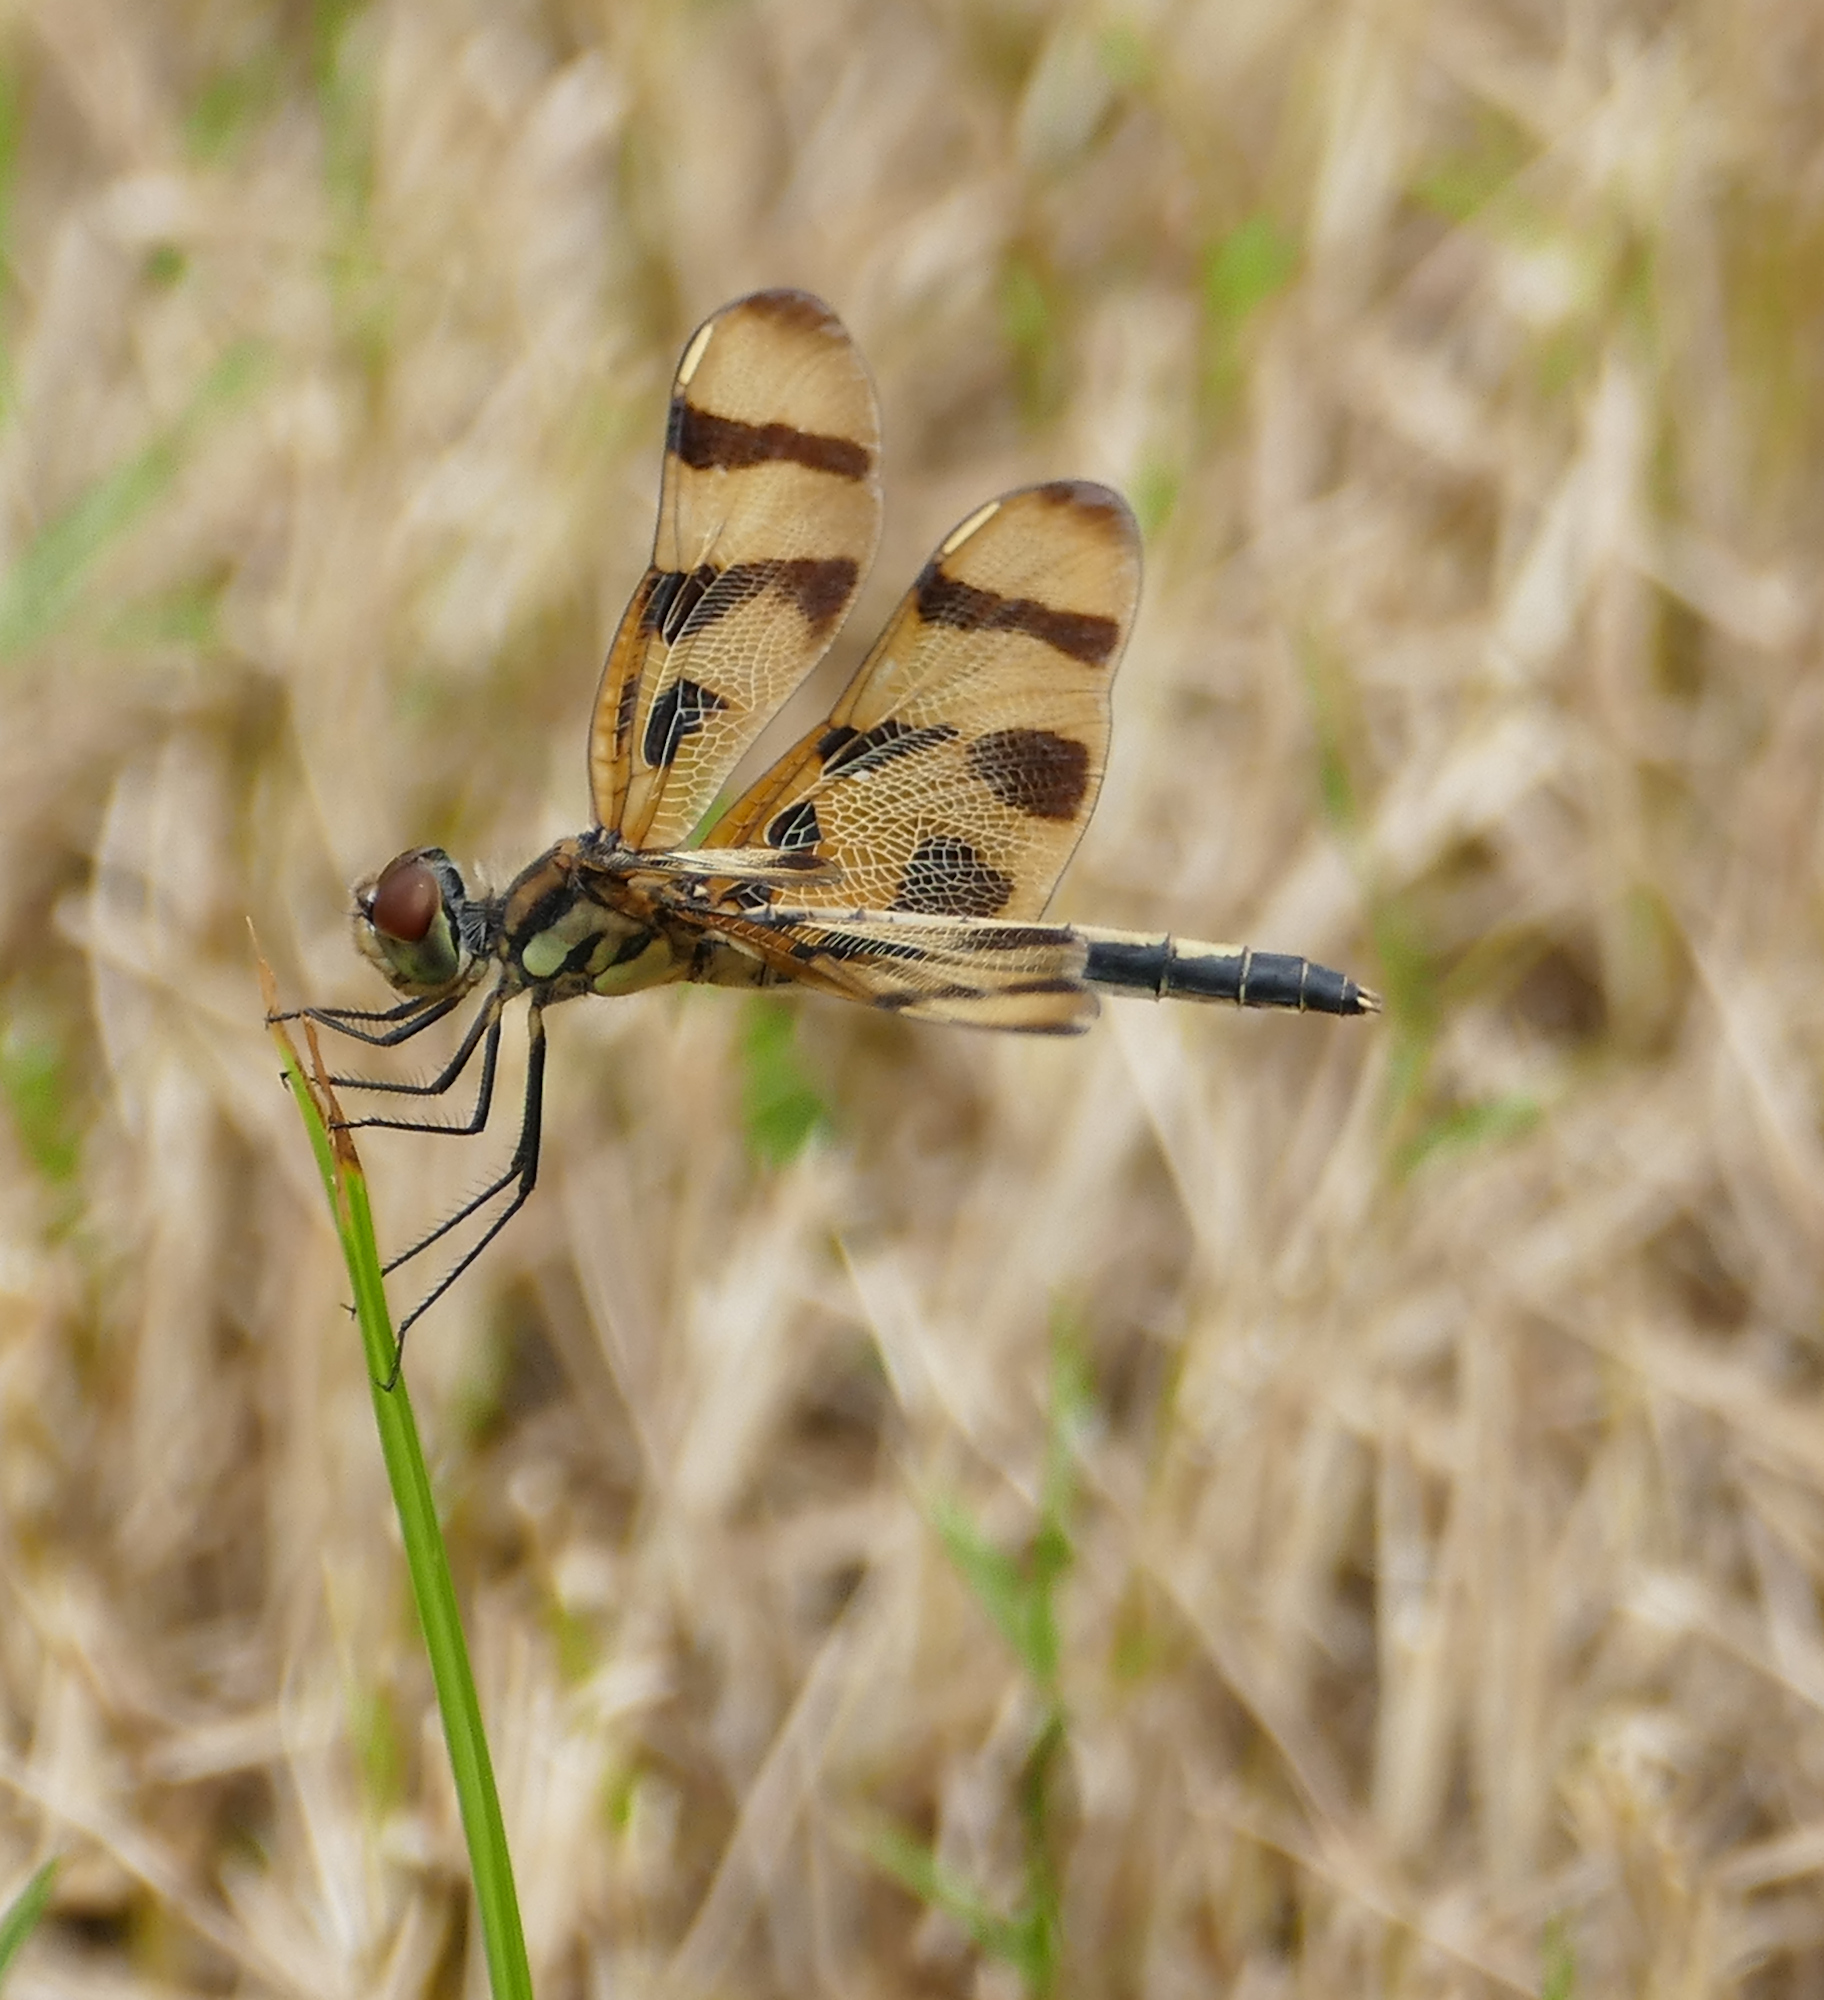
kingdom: Animalia
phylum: Arthropoda
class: Insecta
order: Odonata
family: Libellulidae
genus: Celithemis
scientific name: Celithemis eponina
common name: Halloween pennant
